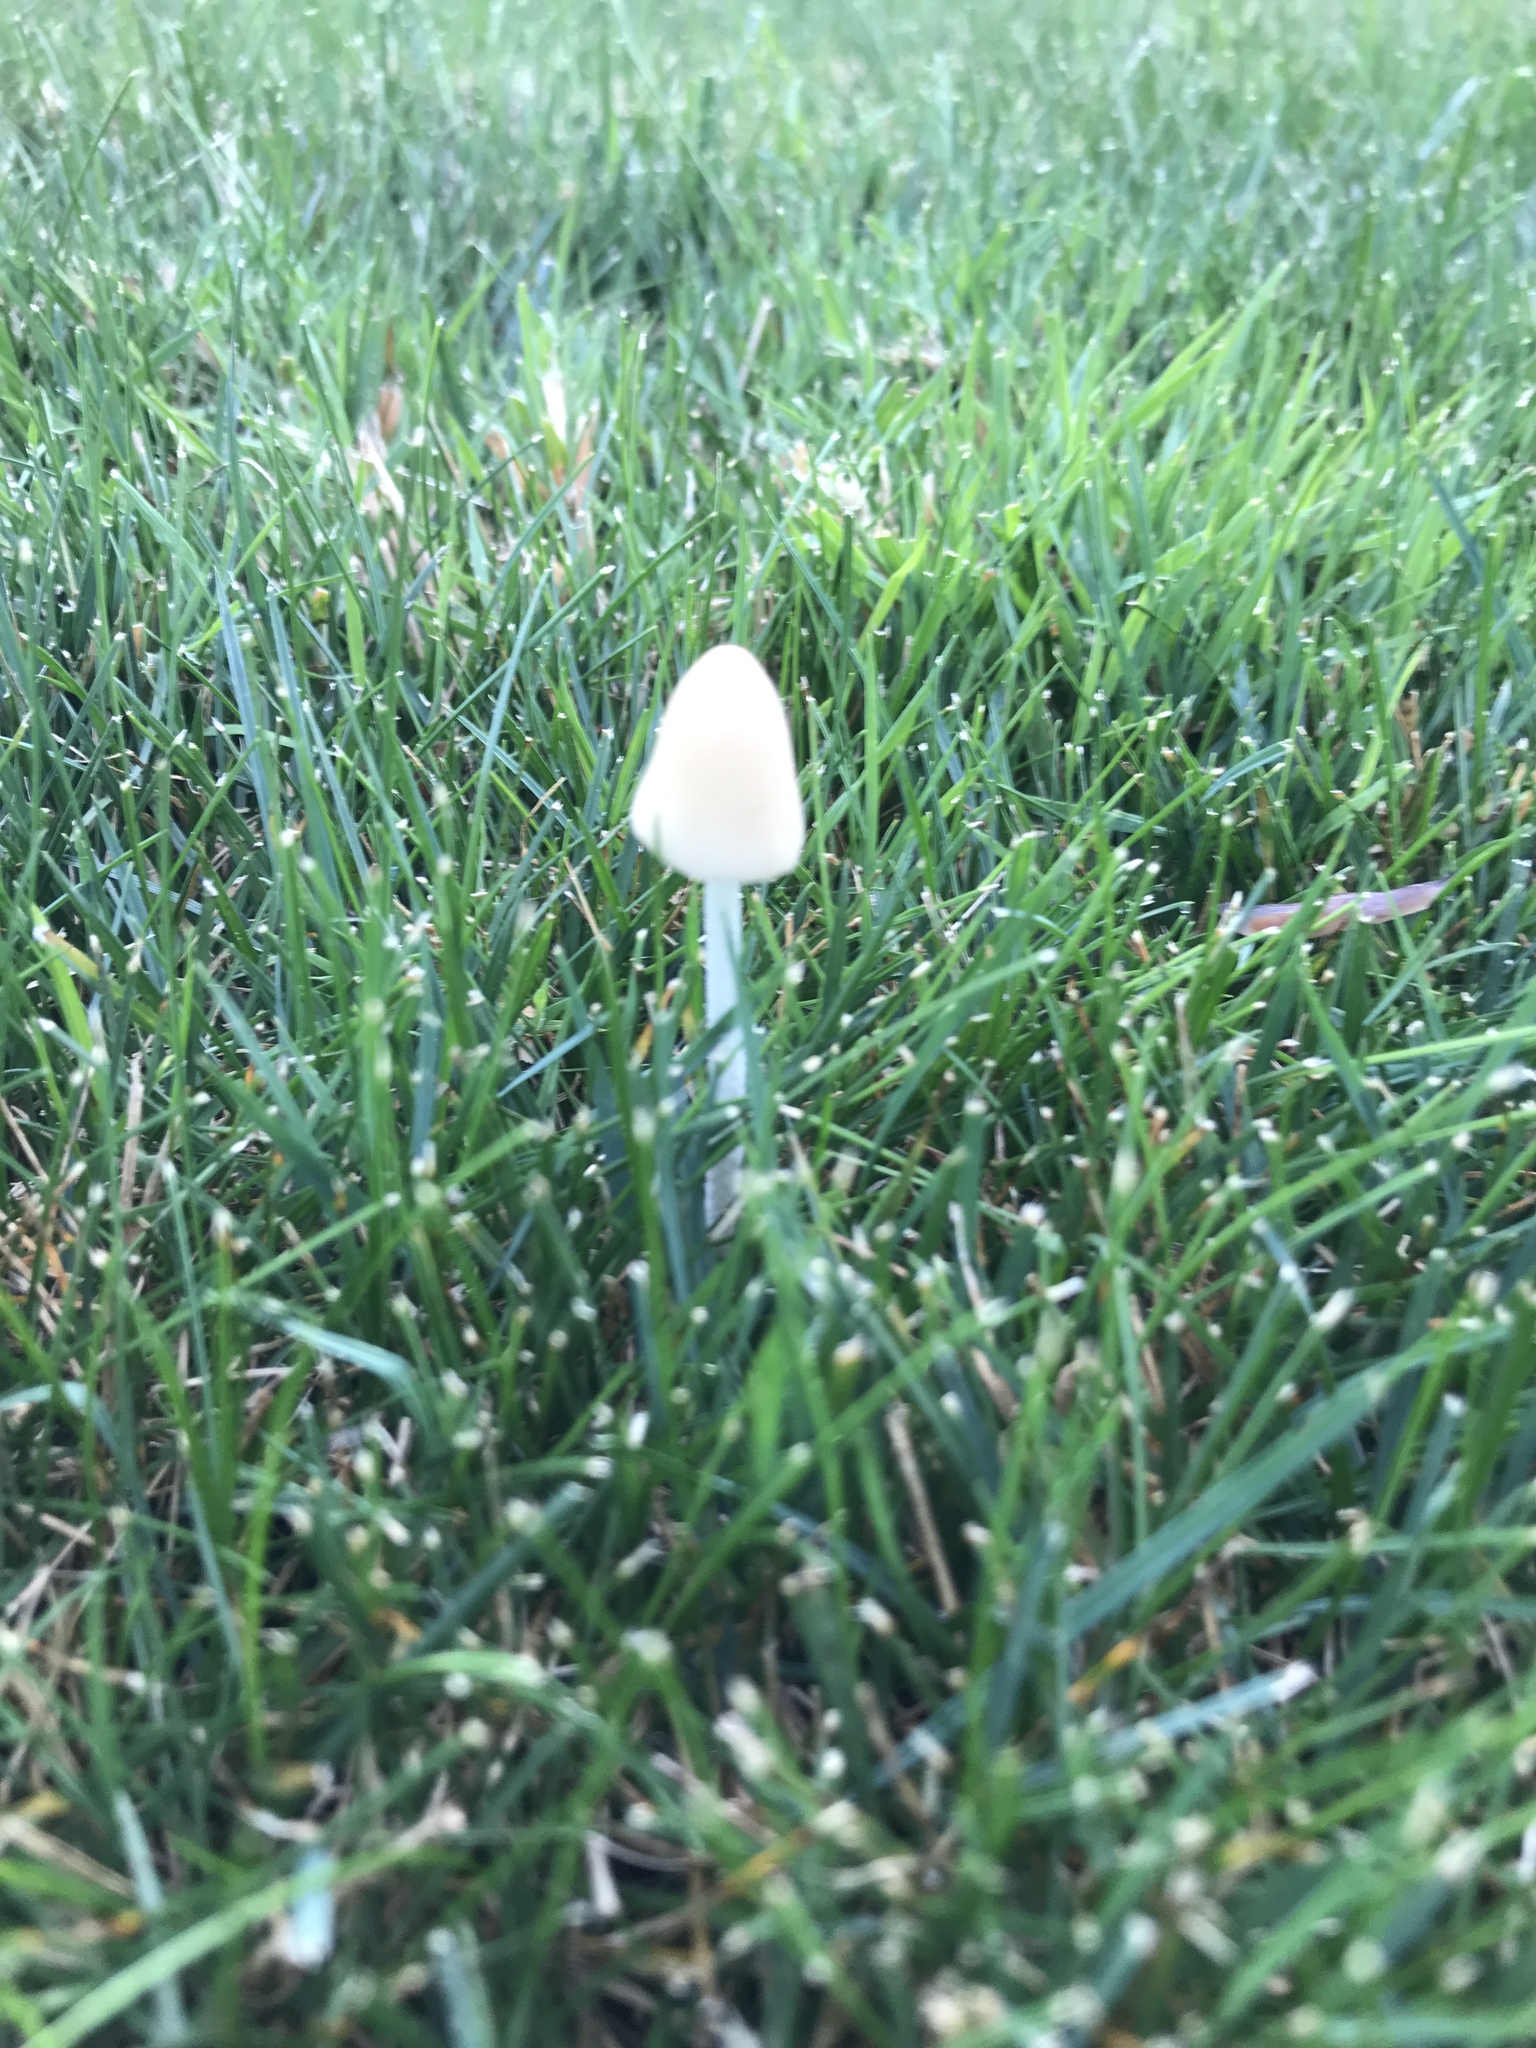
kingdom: Fungi
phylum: Basidiomycota
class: Agaricomycetes
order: Agaricales
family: Bolbitiaceae
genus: Conocybe
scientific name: Conocybe apala
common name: Milky conecap
